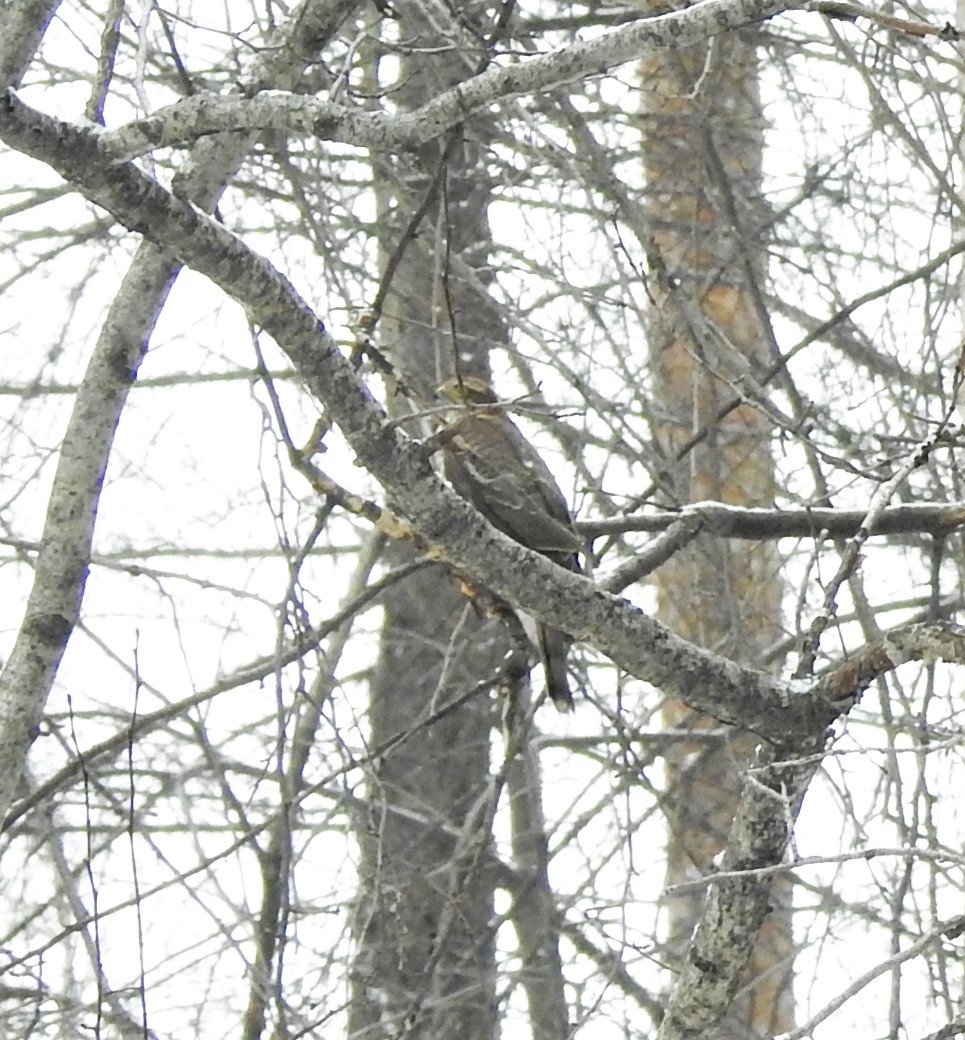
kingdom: Animalia
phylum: Chordata
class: Aves
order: Accipitriformes
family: Accipitridae
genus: Accipiter
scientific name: Accipiter nisus
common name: Eurasian sparrowhawk
